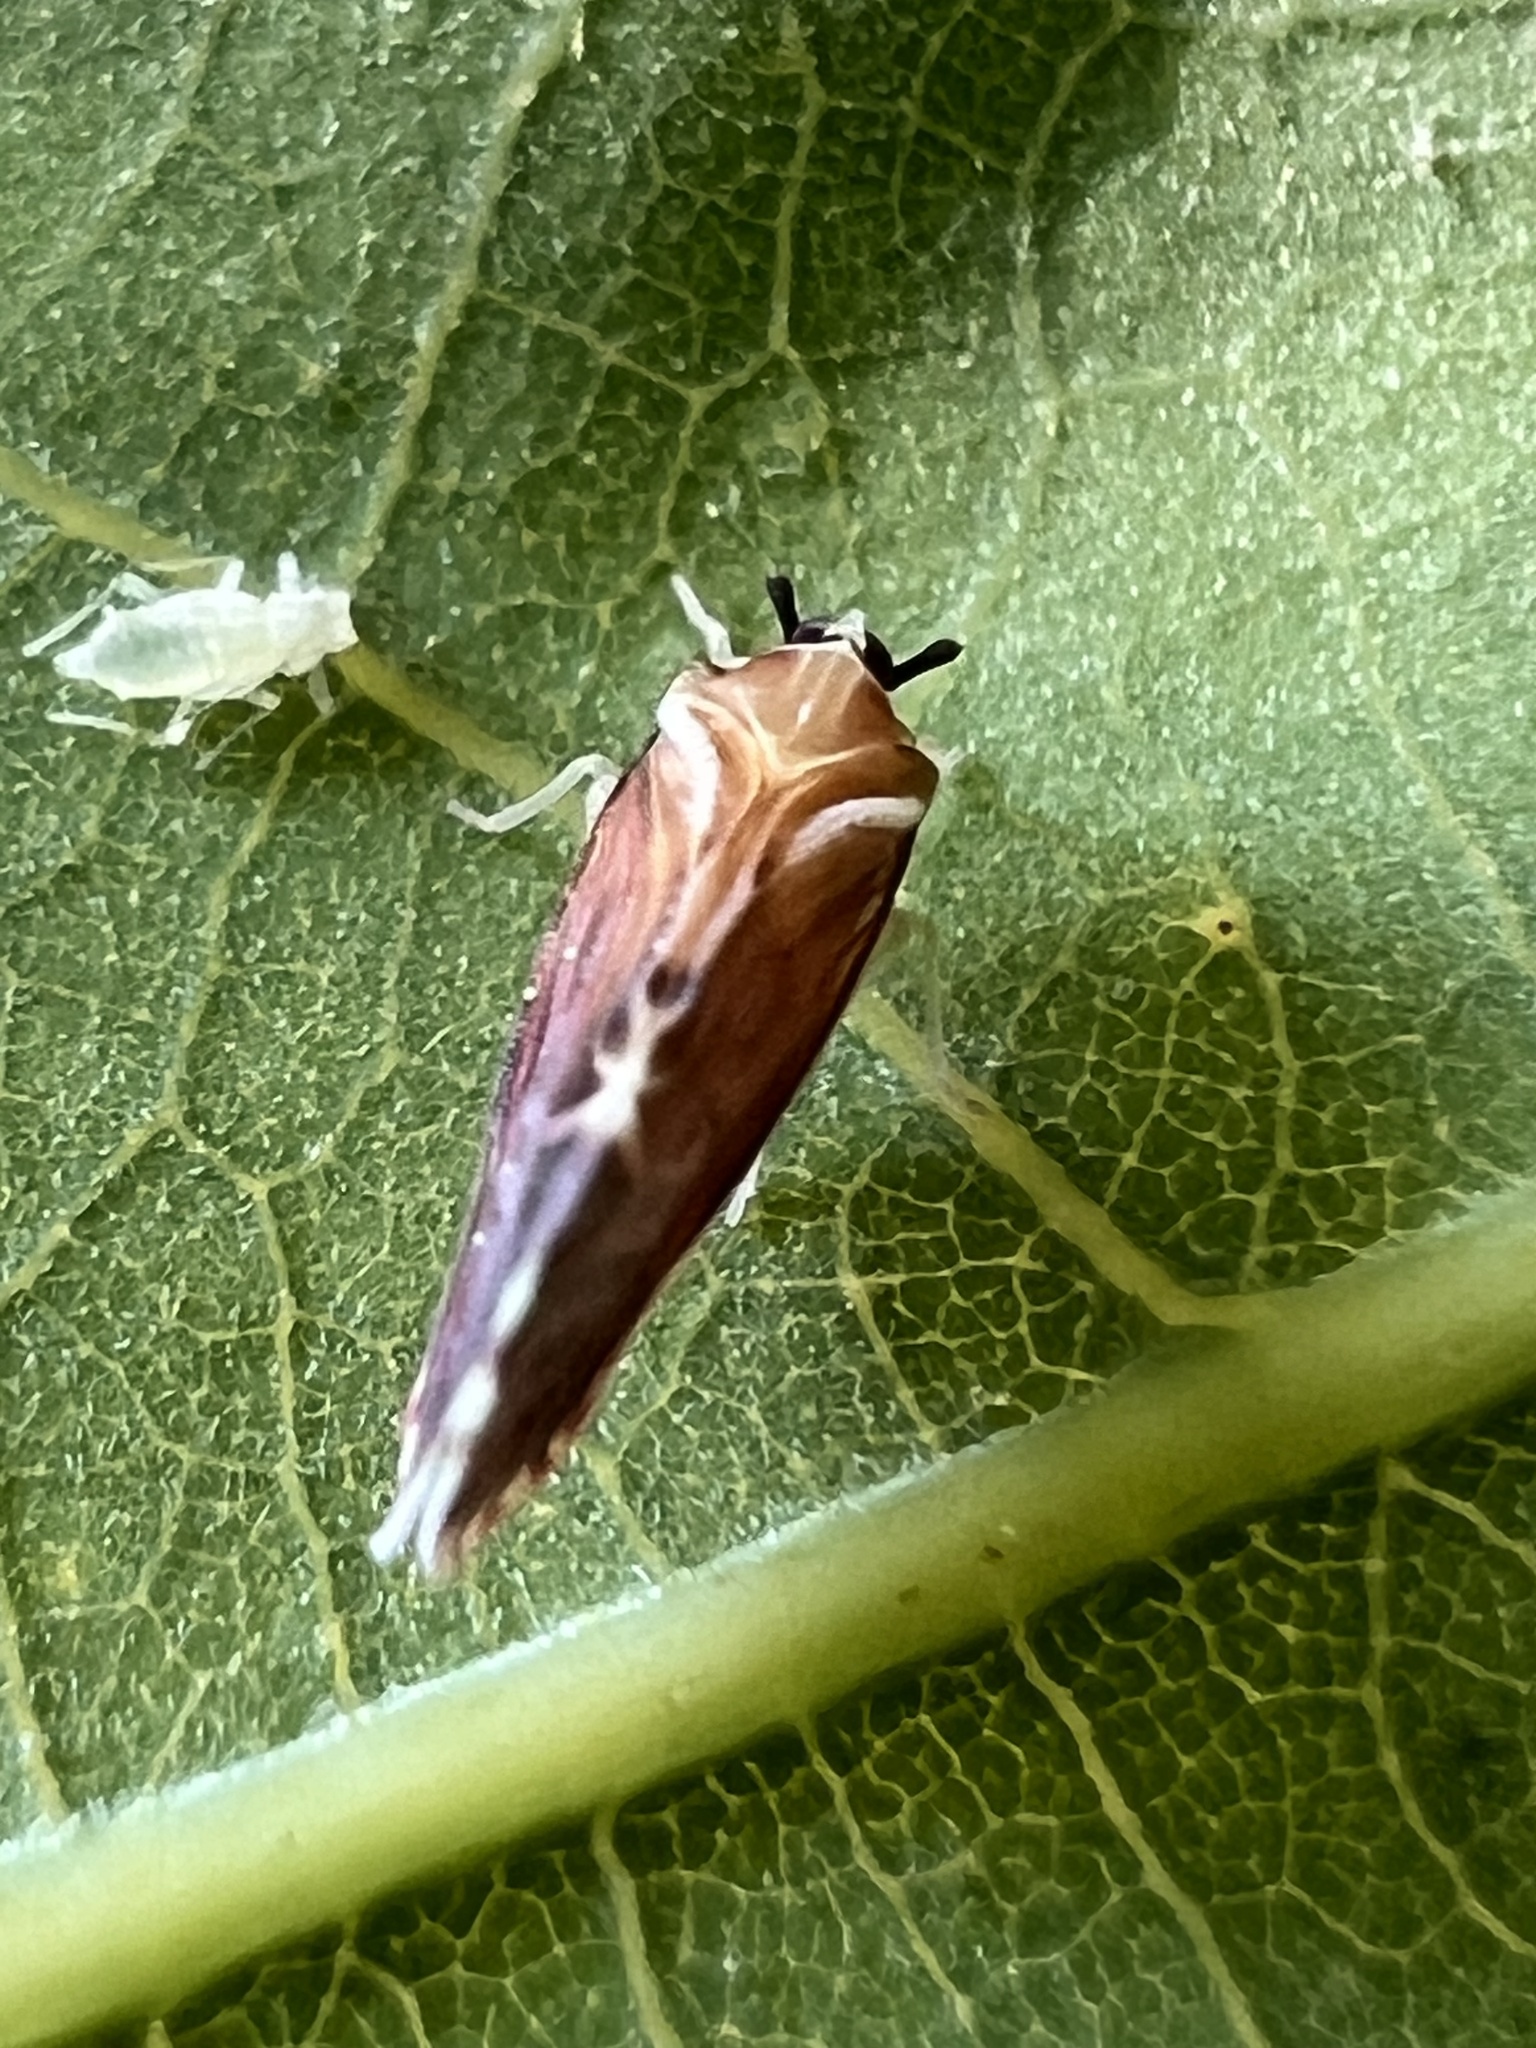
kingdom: Animalia
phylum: Arthropoda
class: Insecta
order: Hemiptera
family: Derbidae
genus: Patara
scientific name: Patara vanduzei
